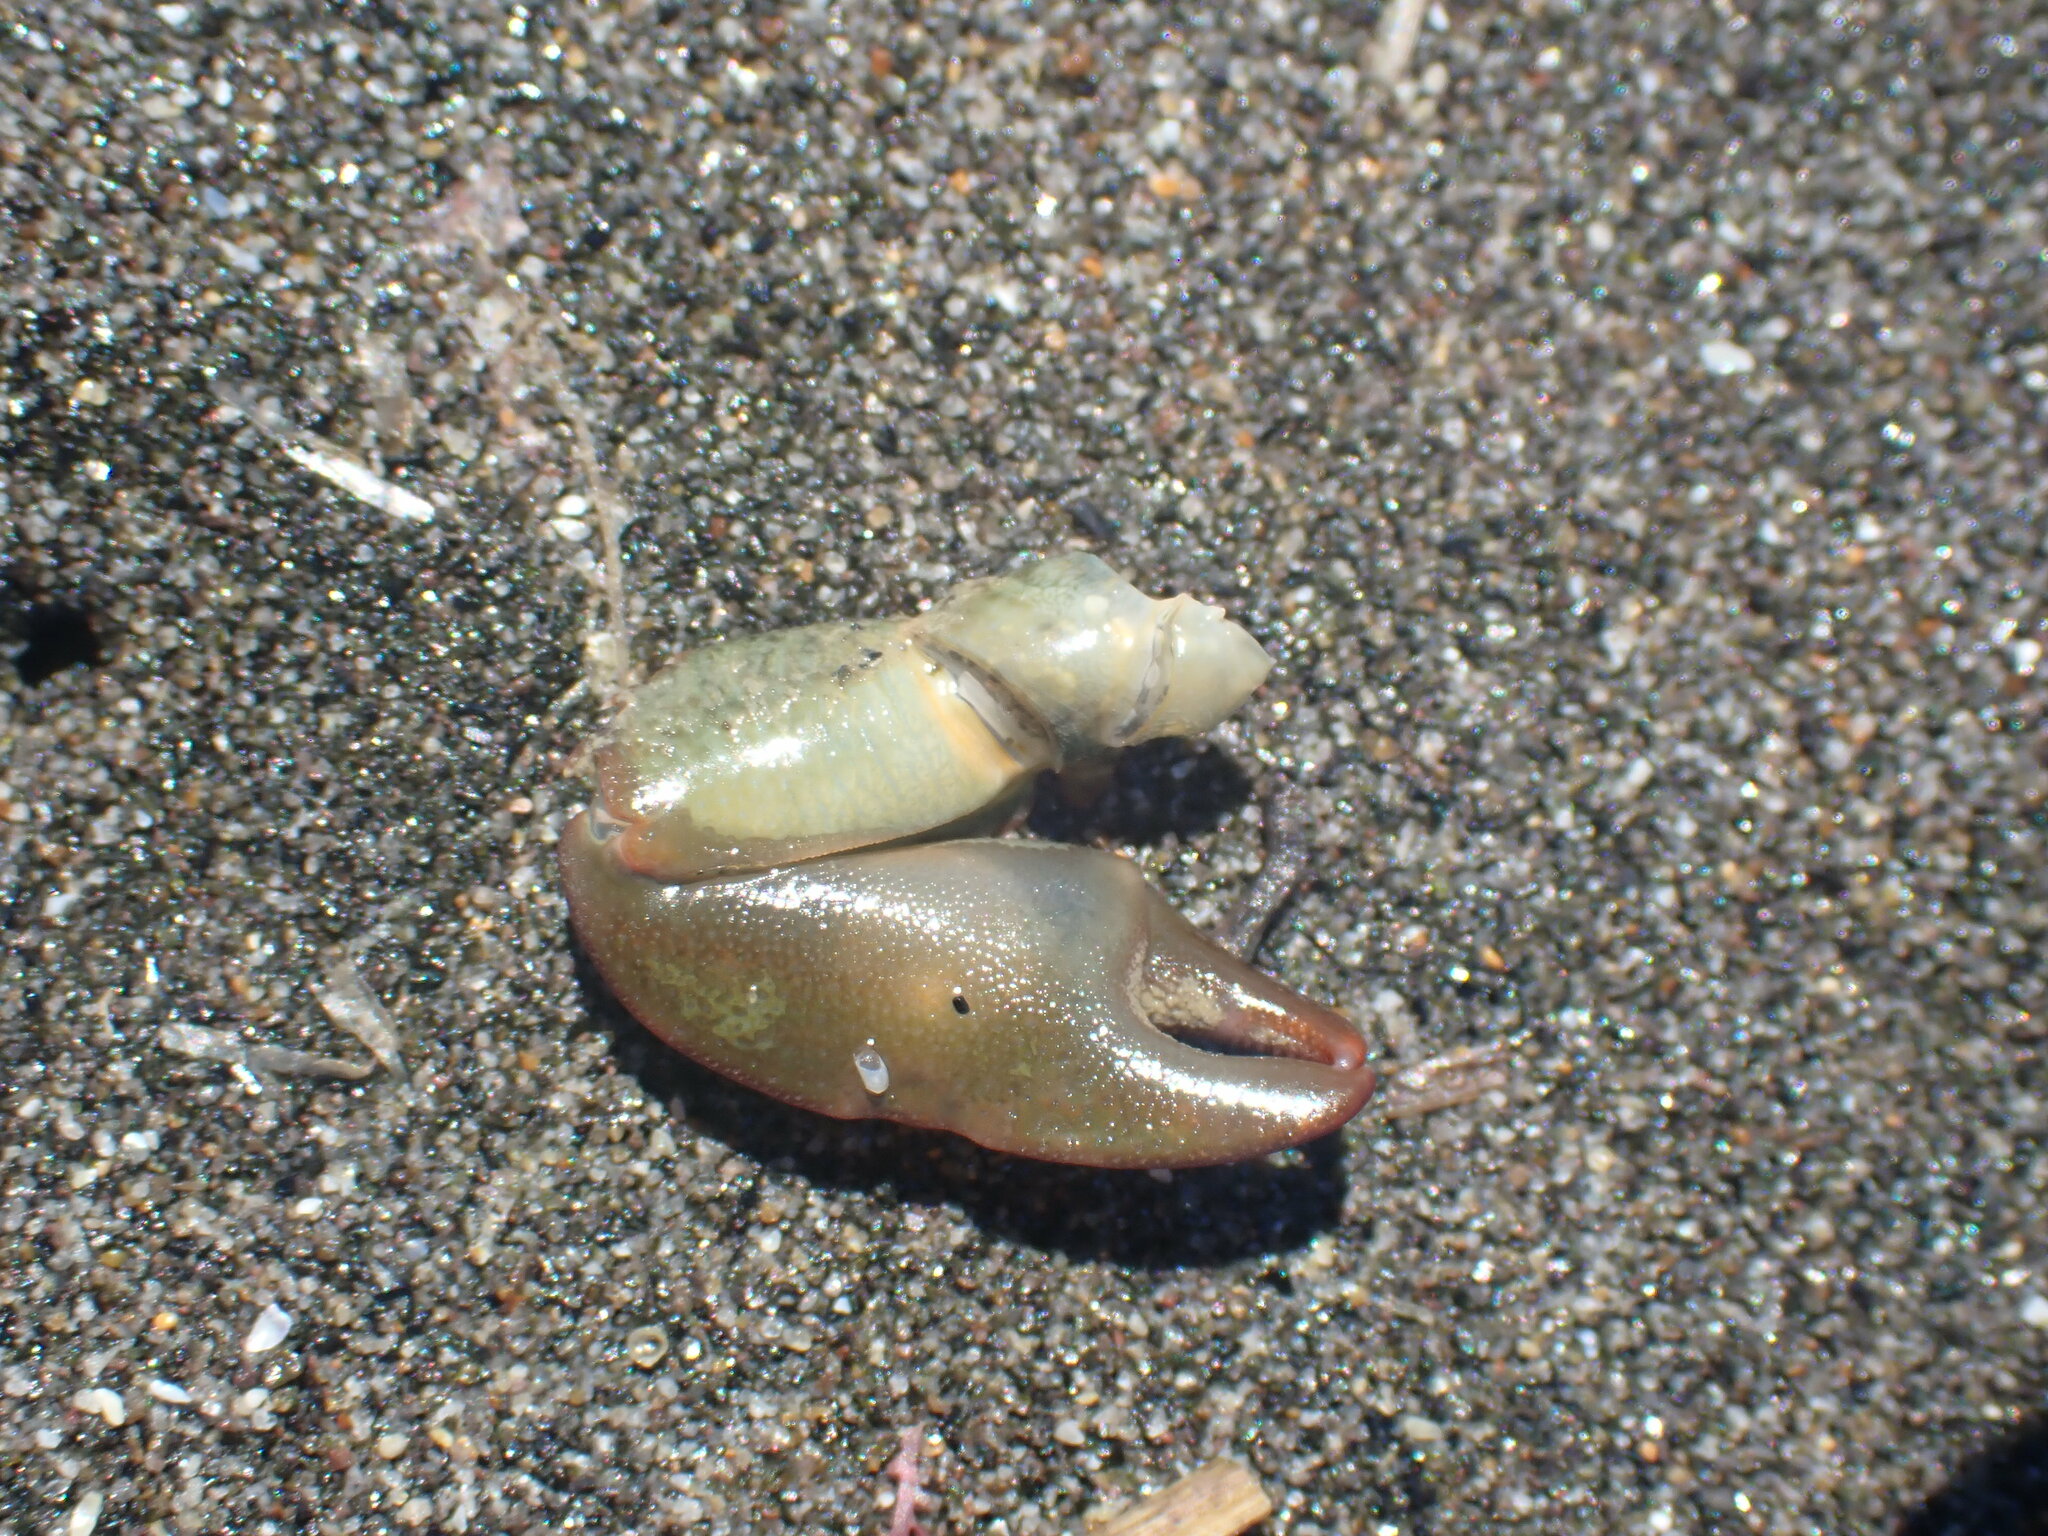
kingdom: Animalia
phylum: Arthropoda
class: Malacostraca
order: Decapoda
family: Porcellanidae
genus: Petrolisthes
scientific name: Petrolisthes elongatus
